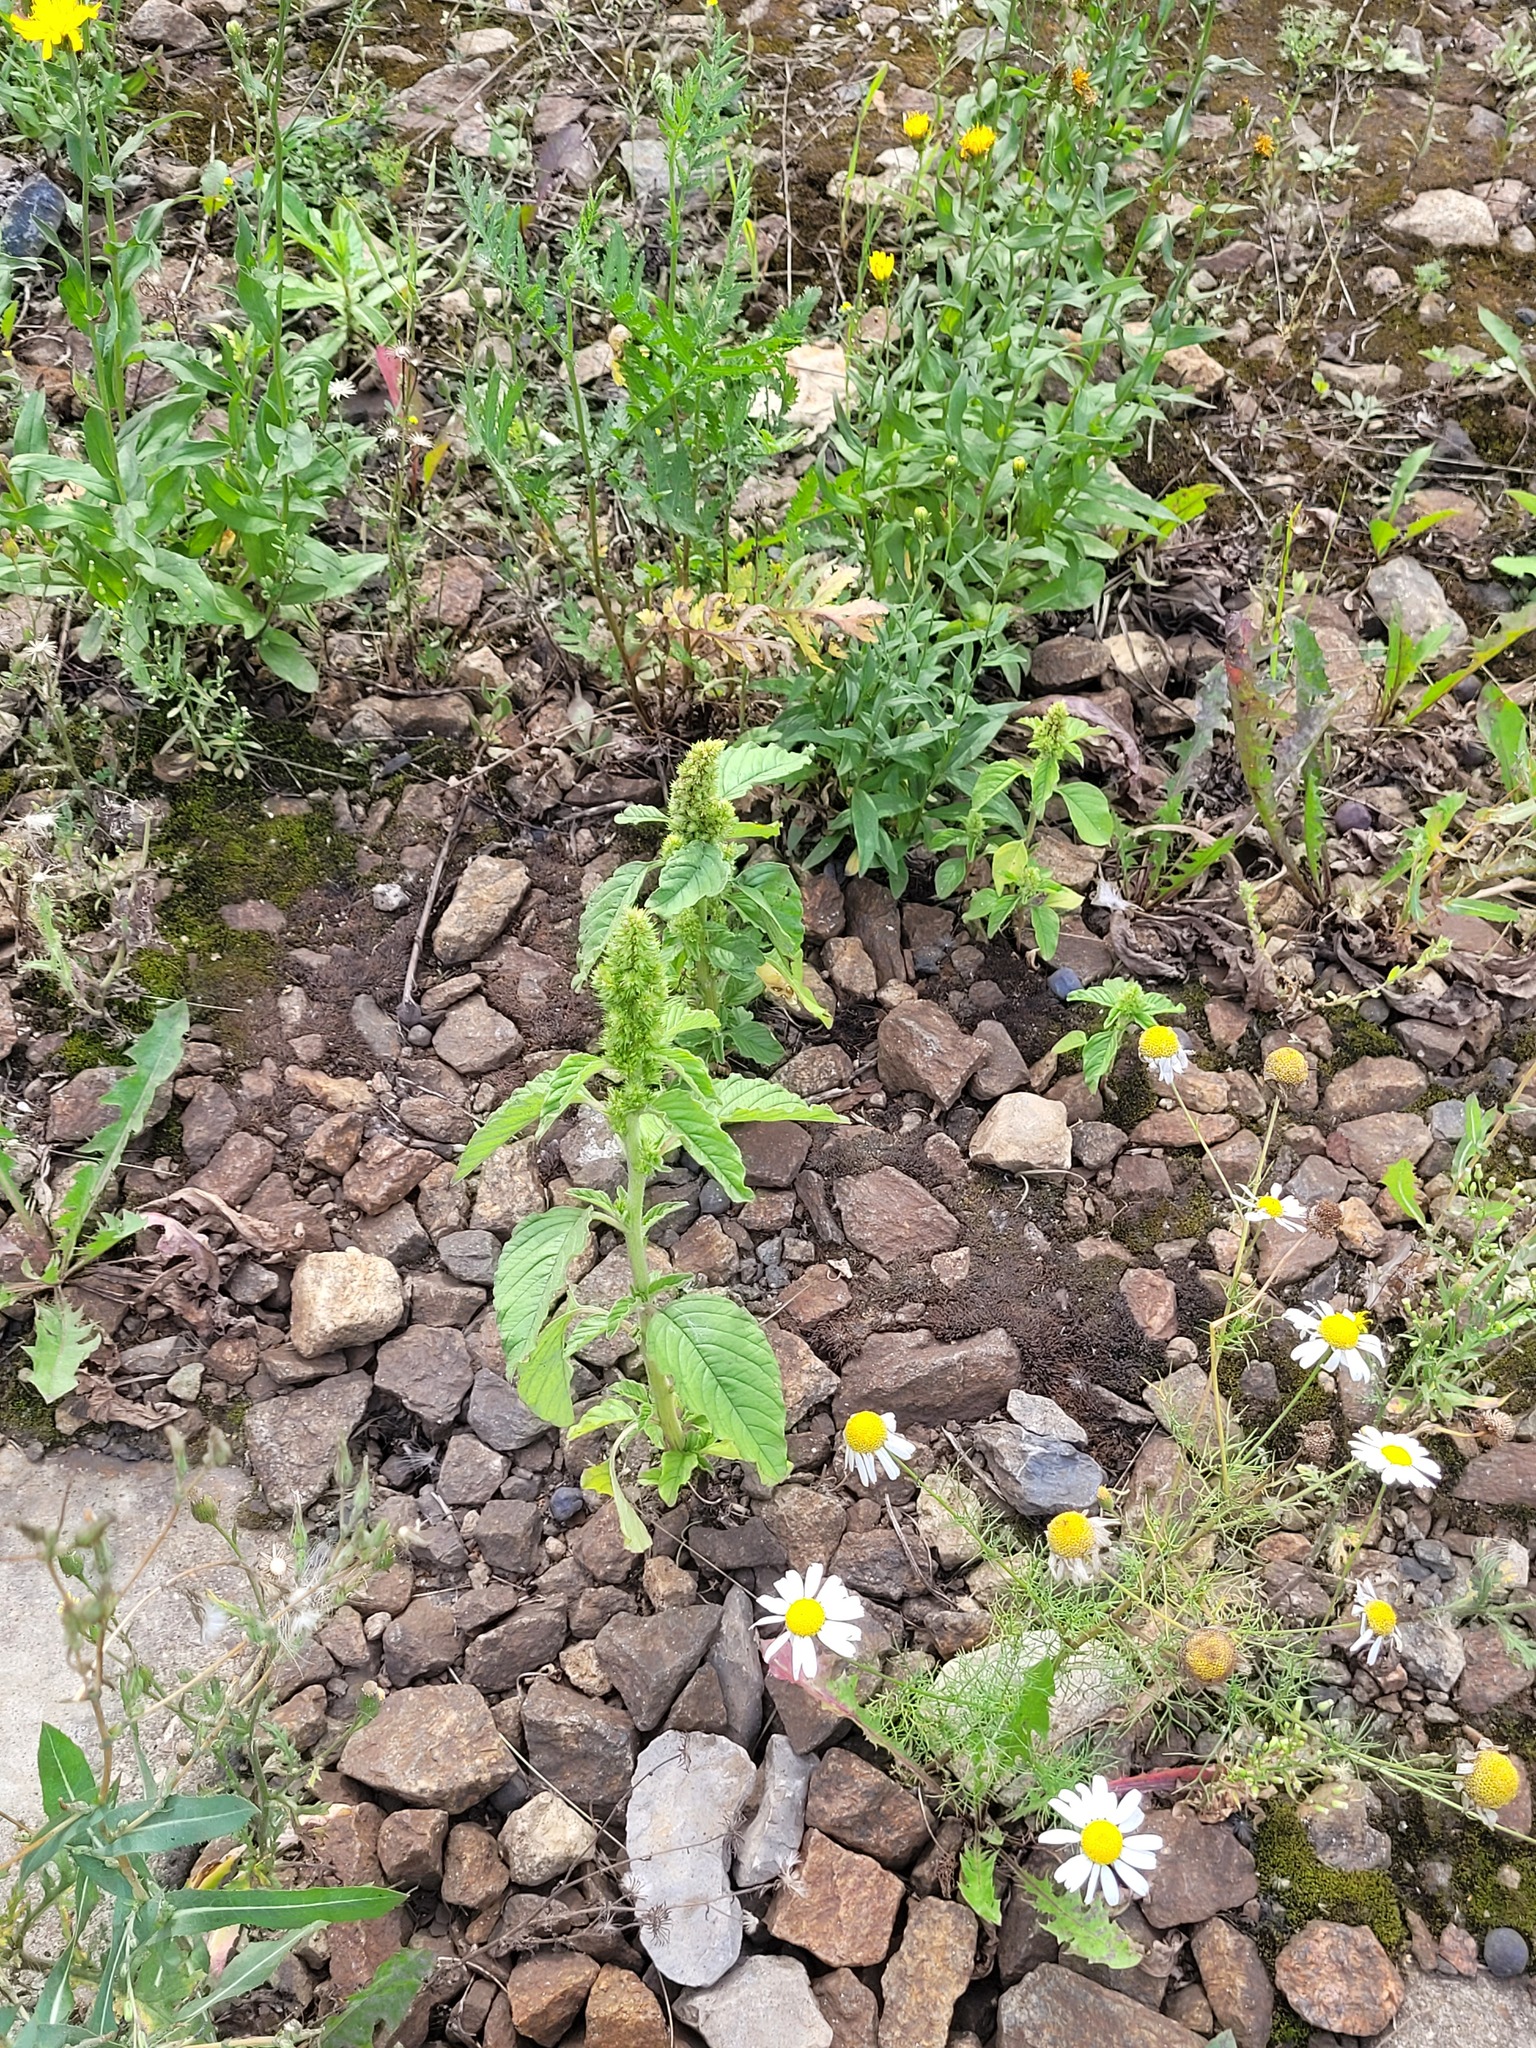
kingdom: Plantae
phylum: Tracheophyta
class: Magnoliopsida
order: Caryophyllales
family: Amaranthaceae
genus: Amaranthus
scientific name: Amaranthus retroflexus
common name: Redroot amaranth
